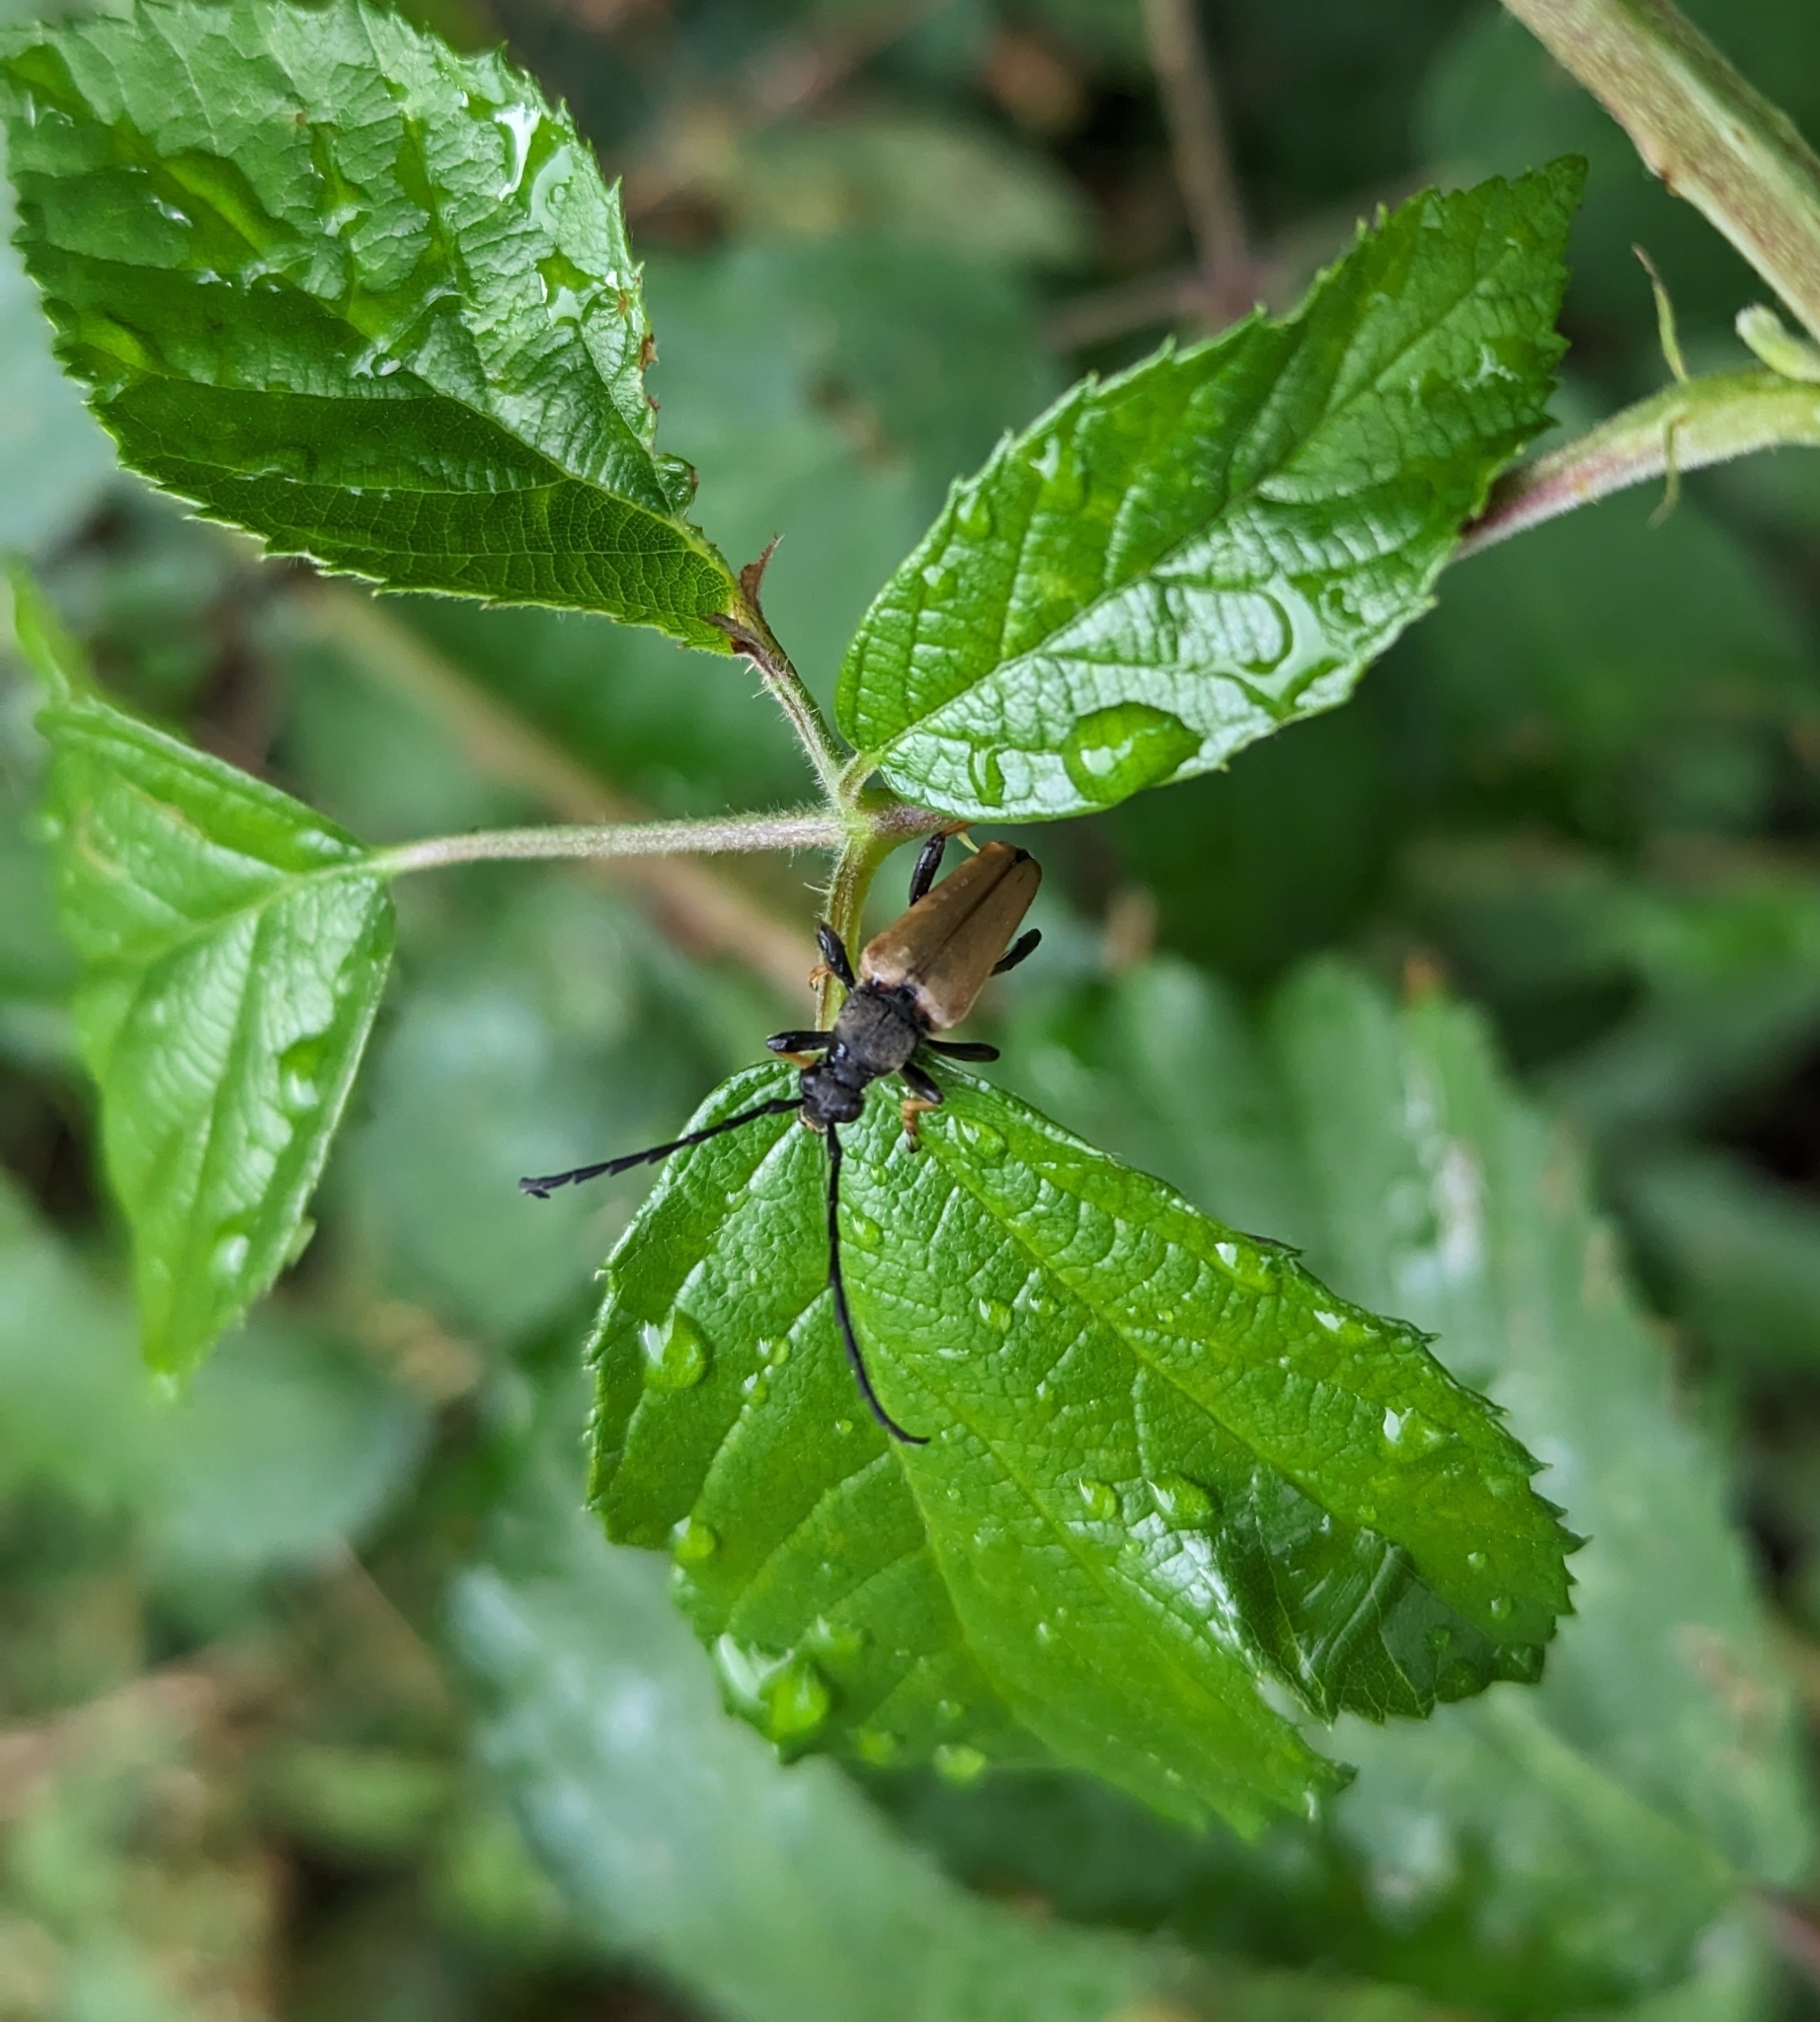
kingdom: Animalia
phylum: Arthropoda
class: Insecta
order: Coleoptera
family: Cerambycidae
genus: Stictoleptura
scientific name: Stictoleptura rubra
